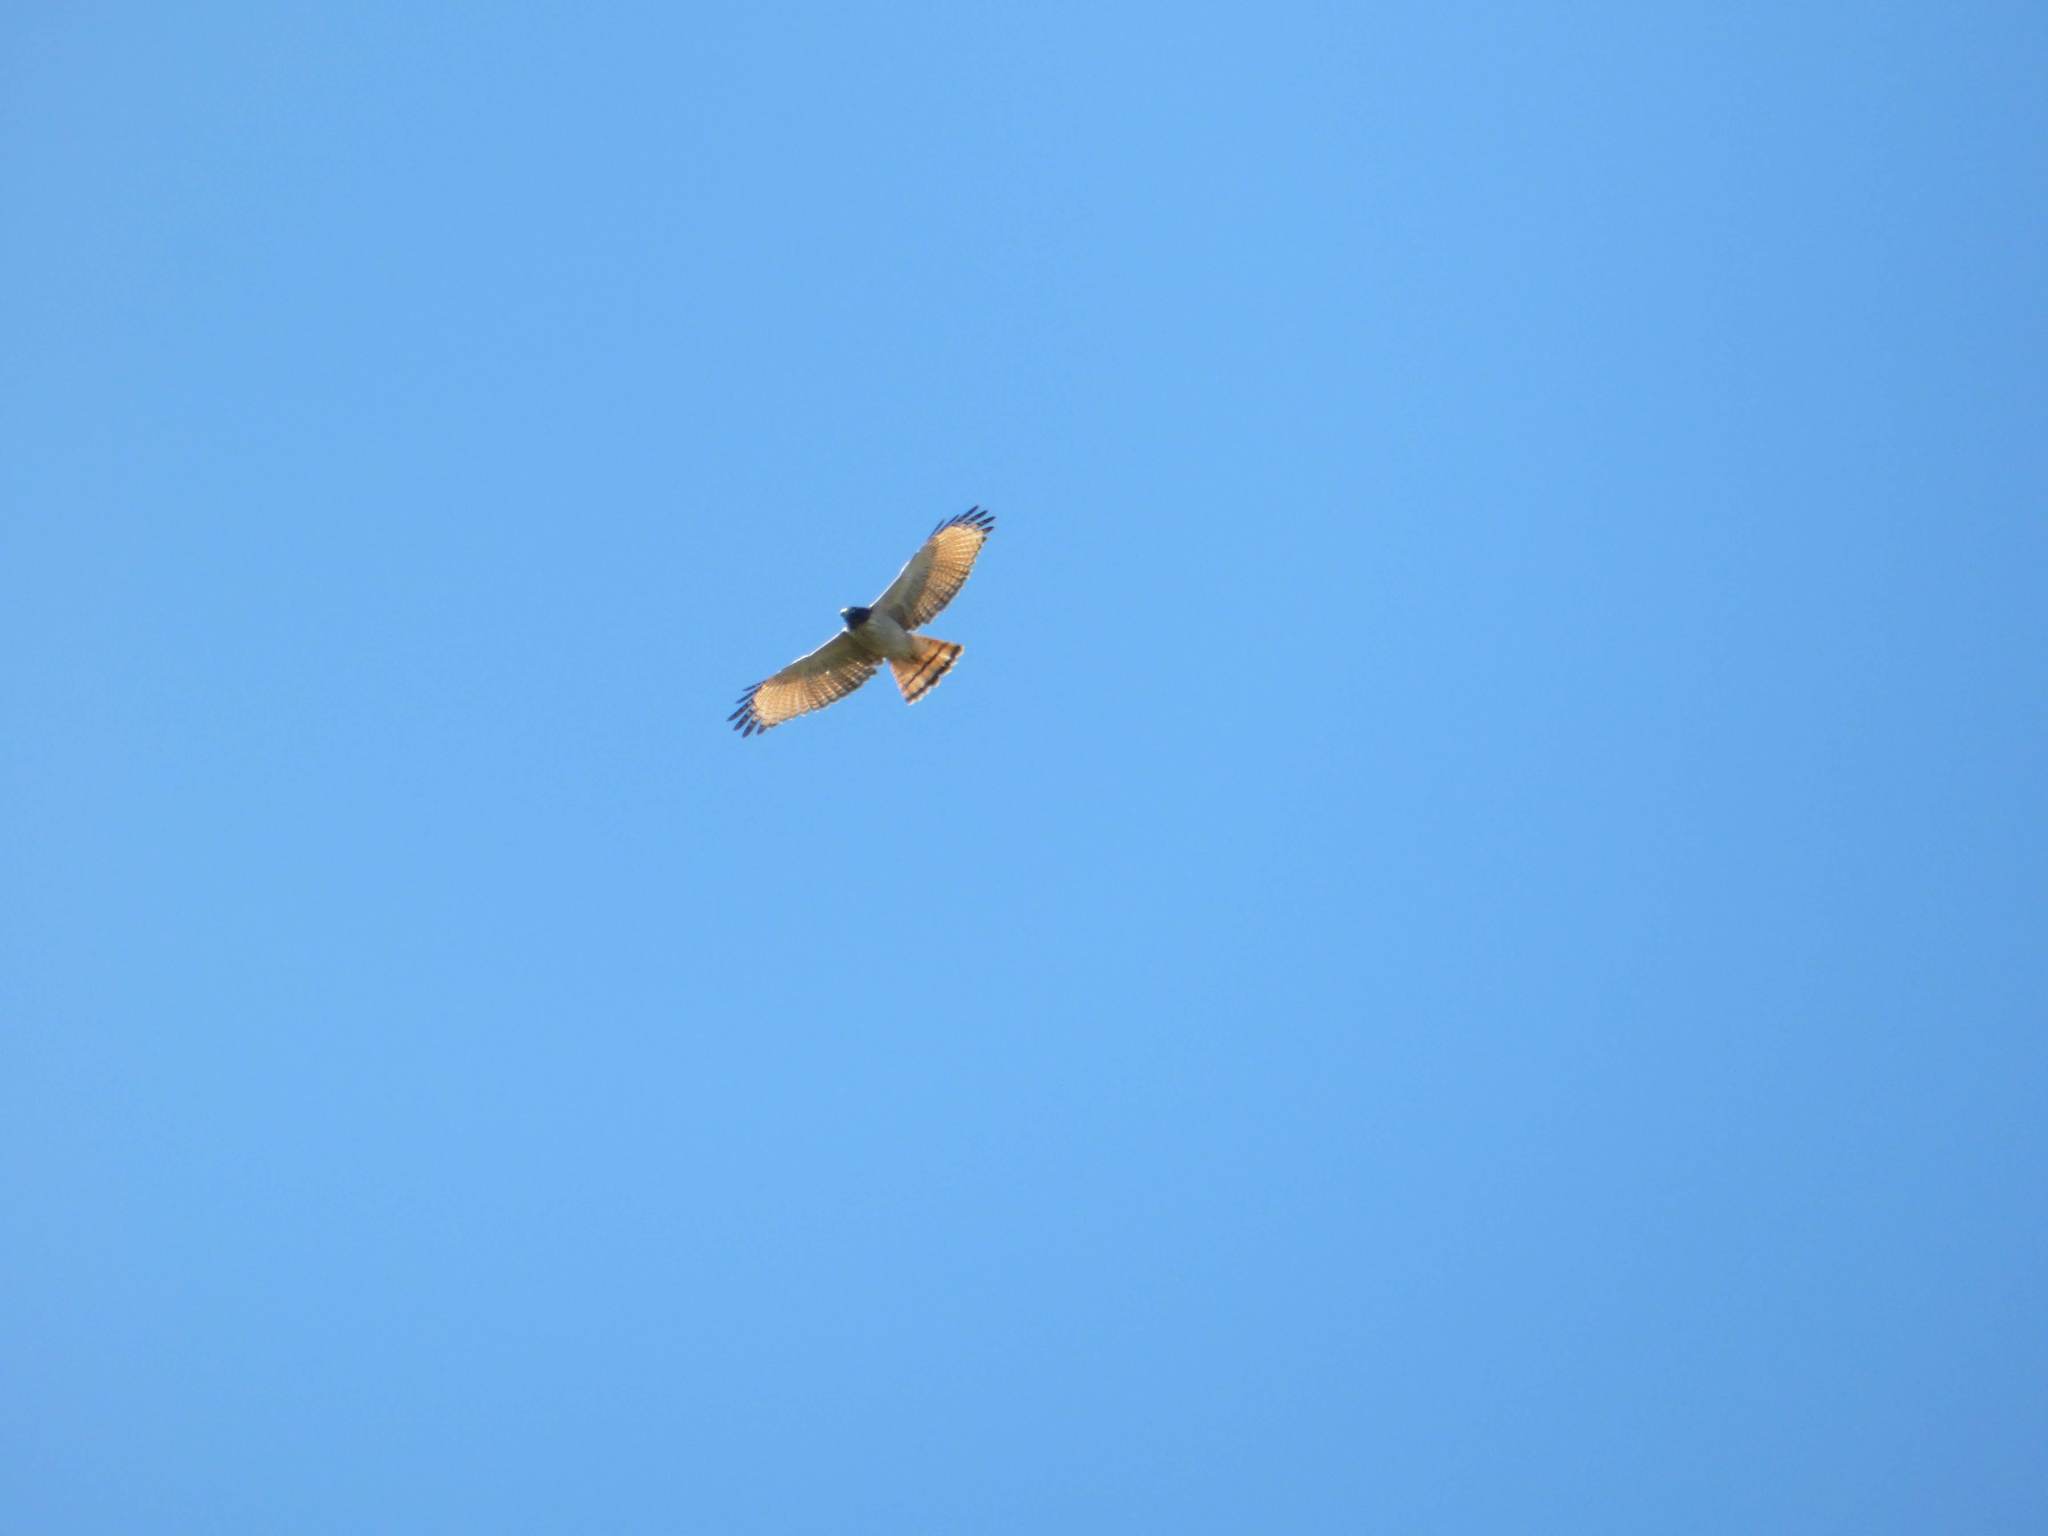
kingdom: Animalia
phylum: Chordata
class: Aves
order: Accipitriformes
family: Accipitridae
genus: Rupornis
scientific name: Rupornis magnirostris
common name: Roadside hawk
